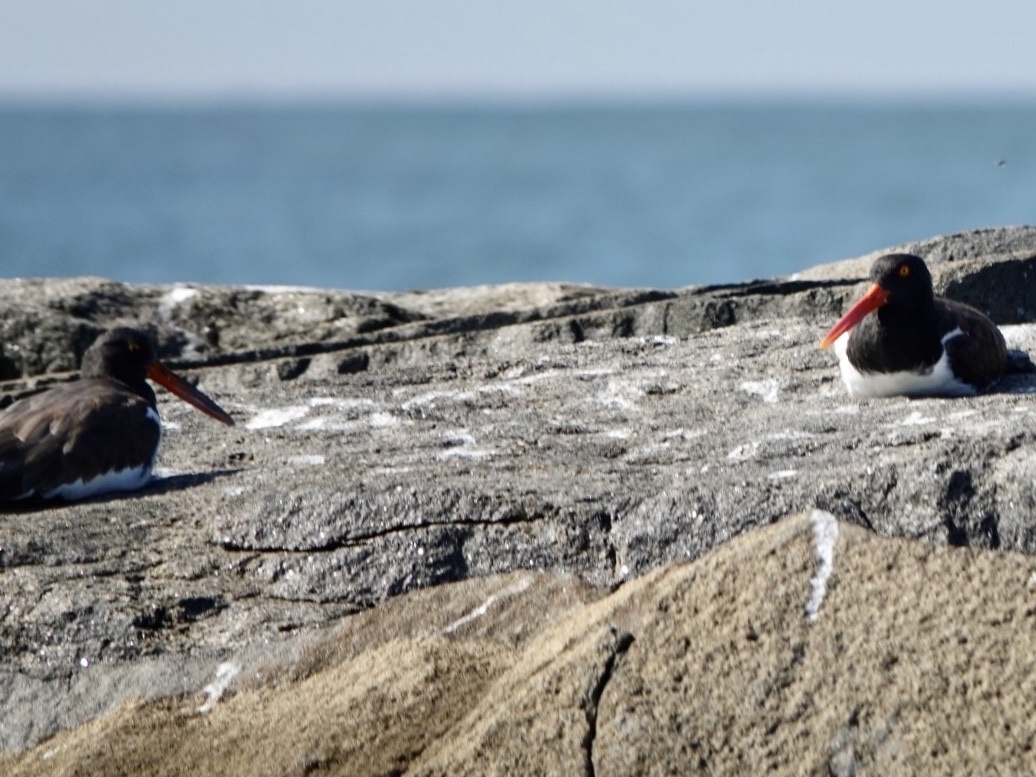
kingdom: Animalia
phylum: Chordata
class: Aves
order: Charadriiformes
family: Haematopodidae
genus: Haematopus
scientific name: Haematopus palliatus
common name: American oystercatcher
